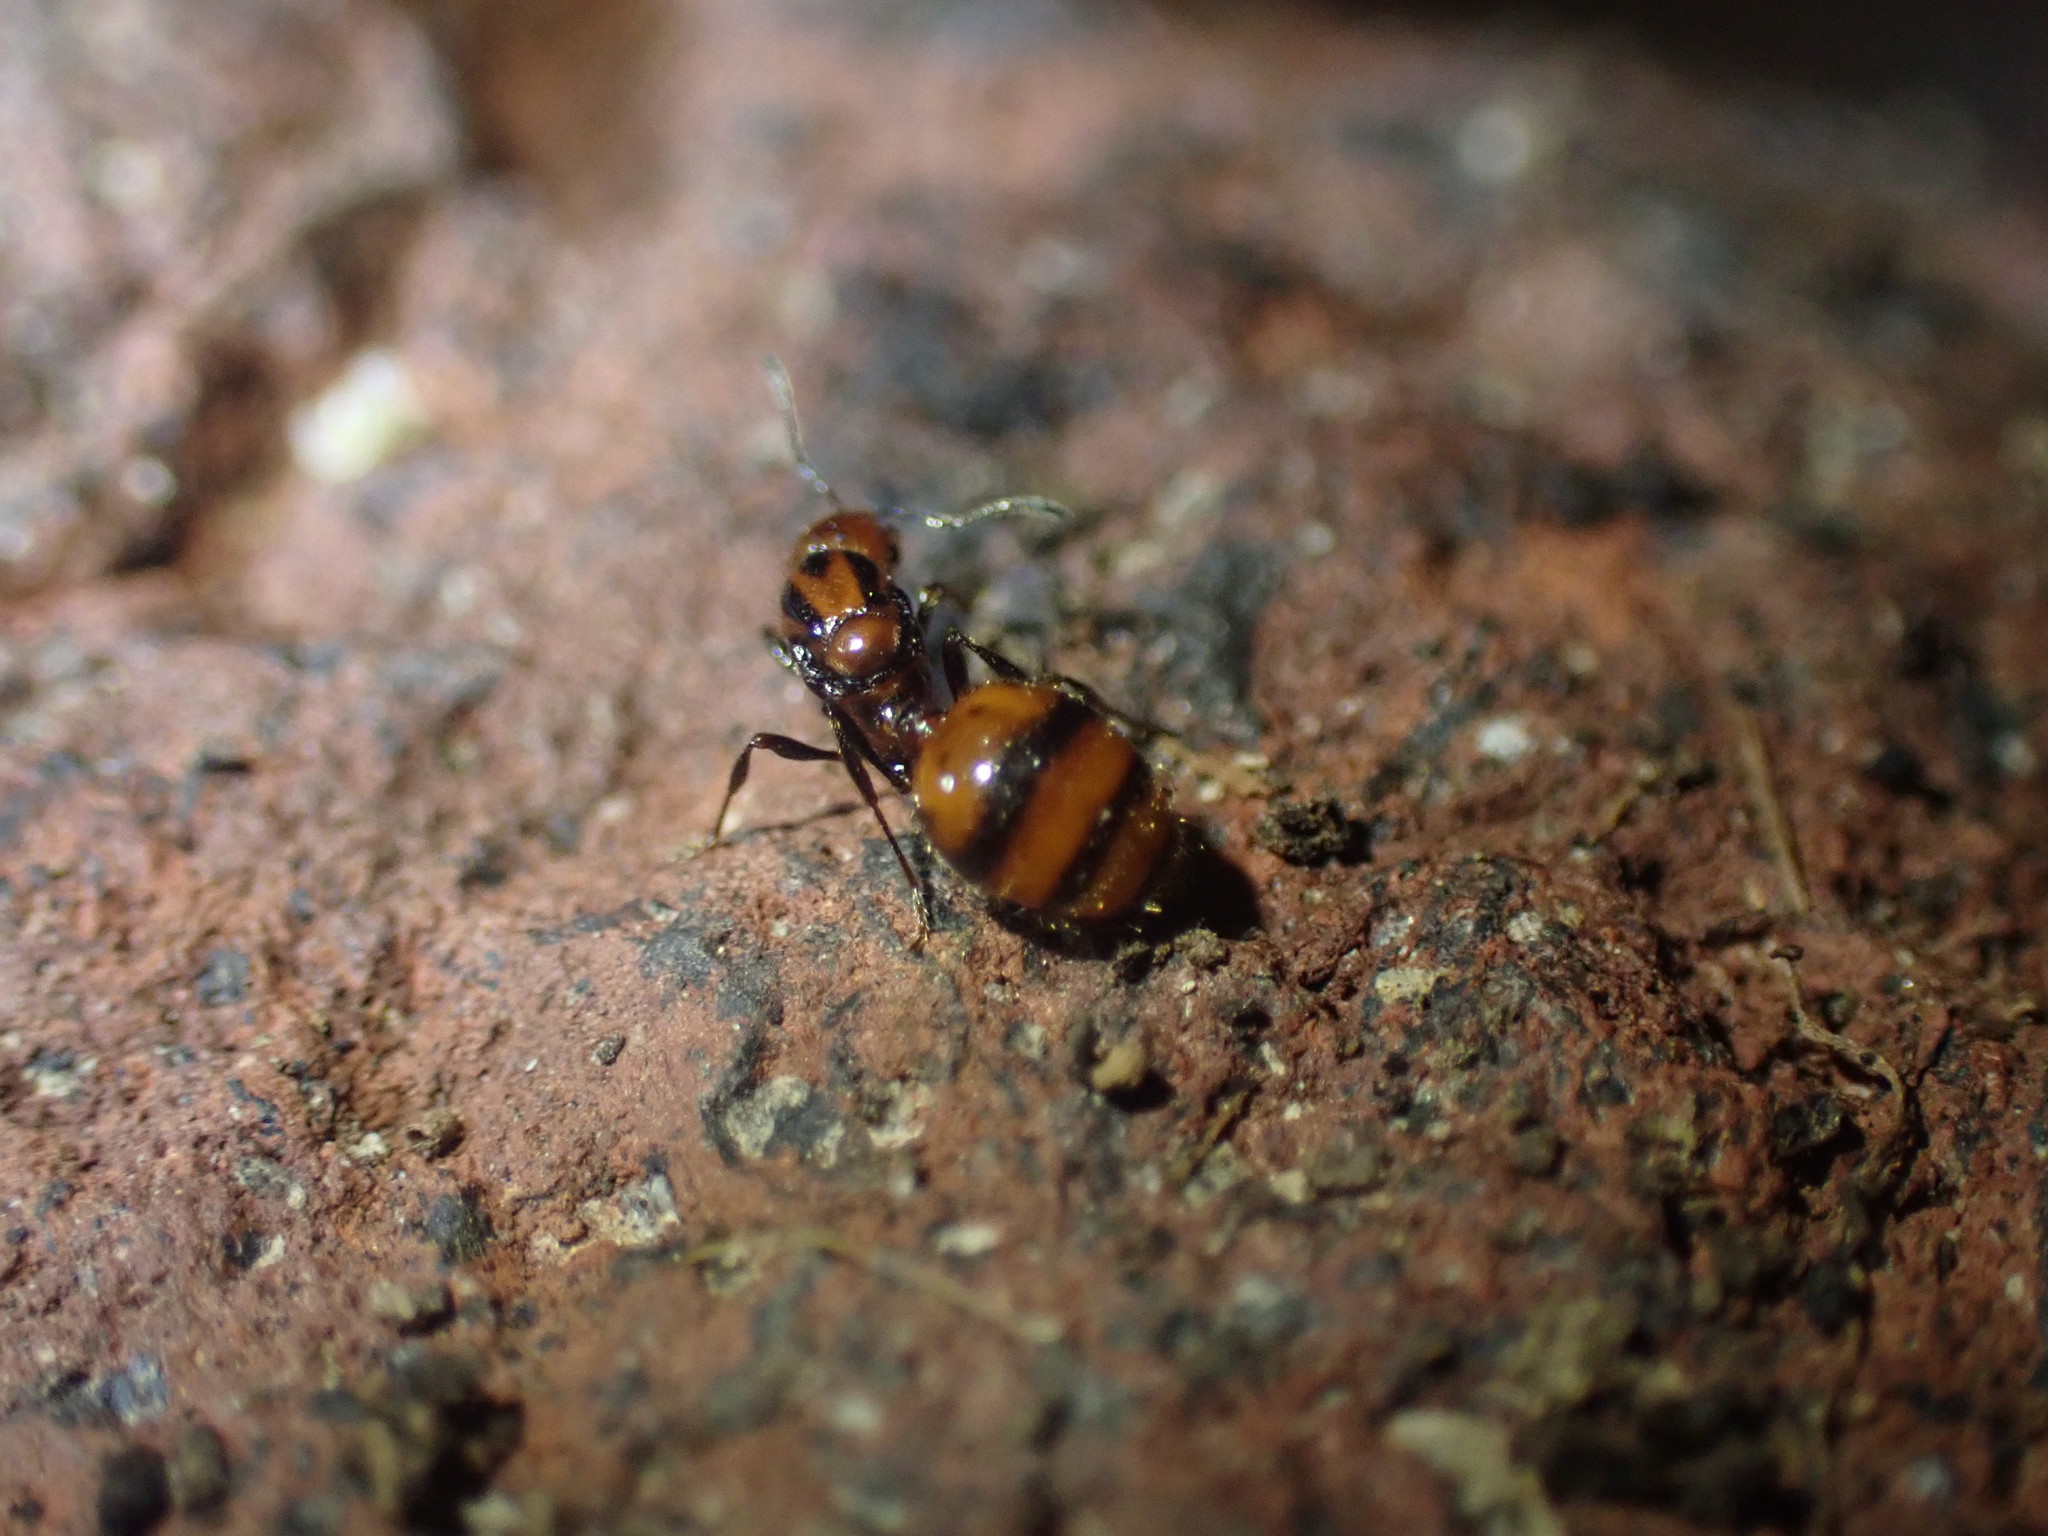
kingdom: Animalia
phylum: Arthropoda
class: Insecta
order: Hymenoptera
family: Formicidae
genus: Monomorium
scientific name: Monomorium antarcticum
